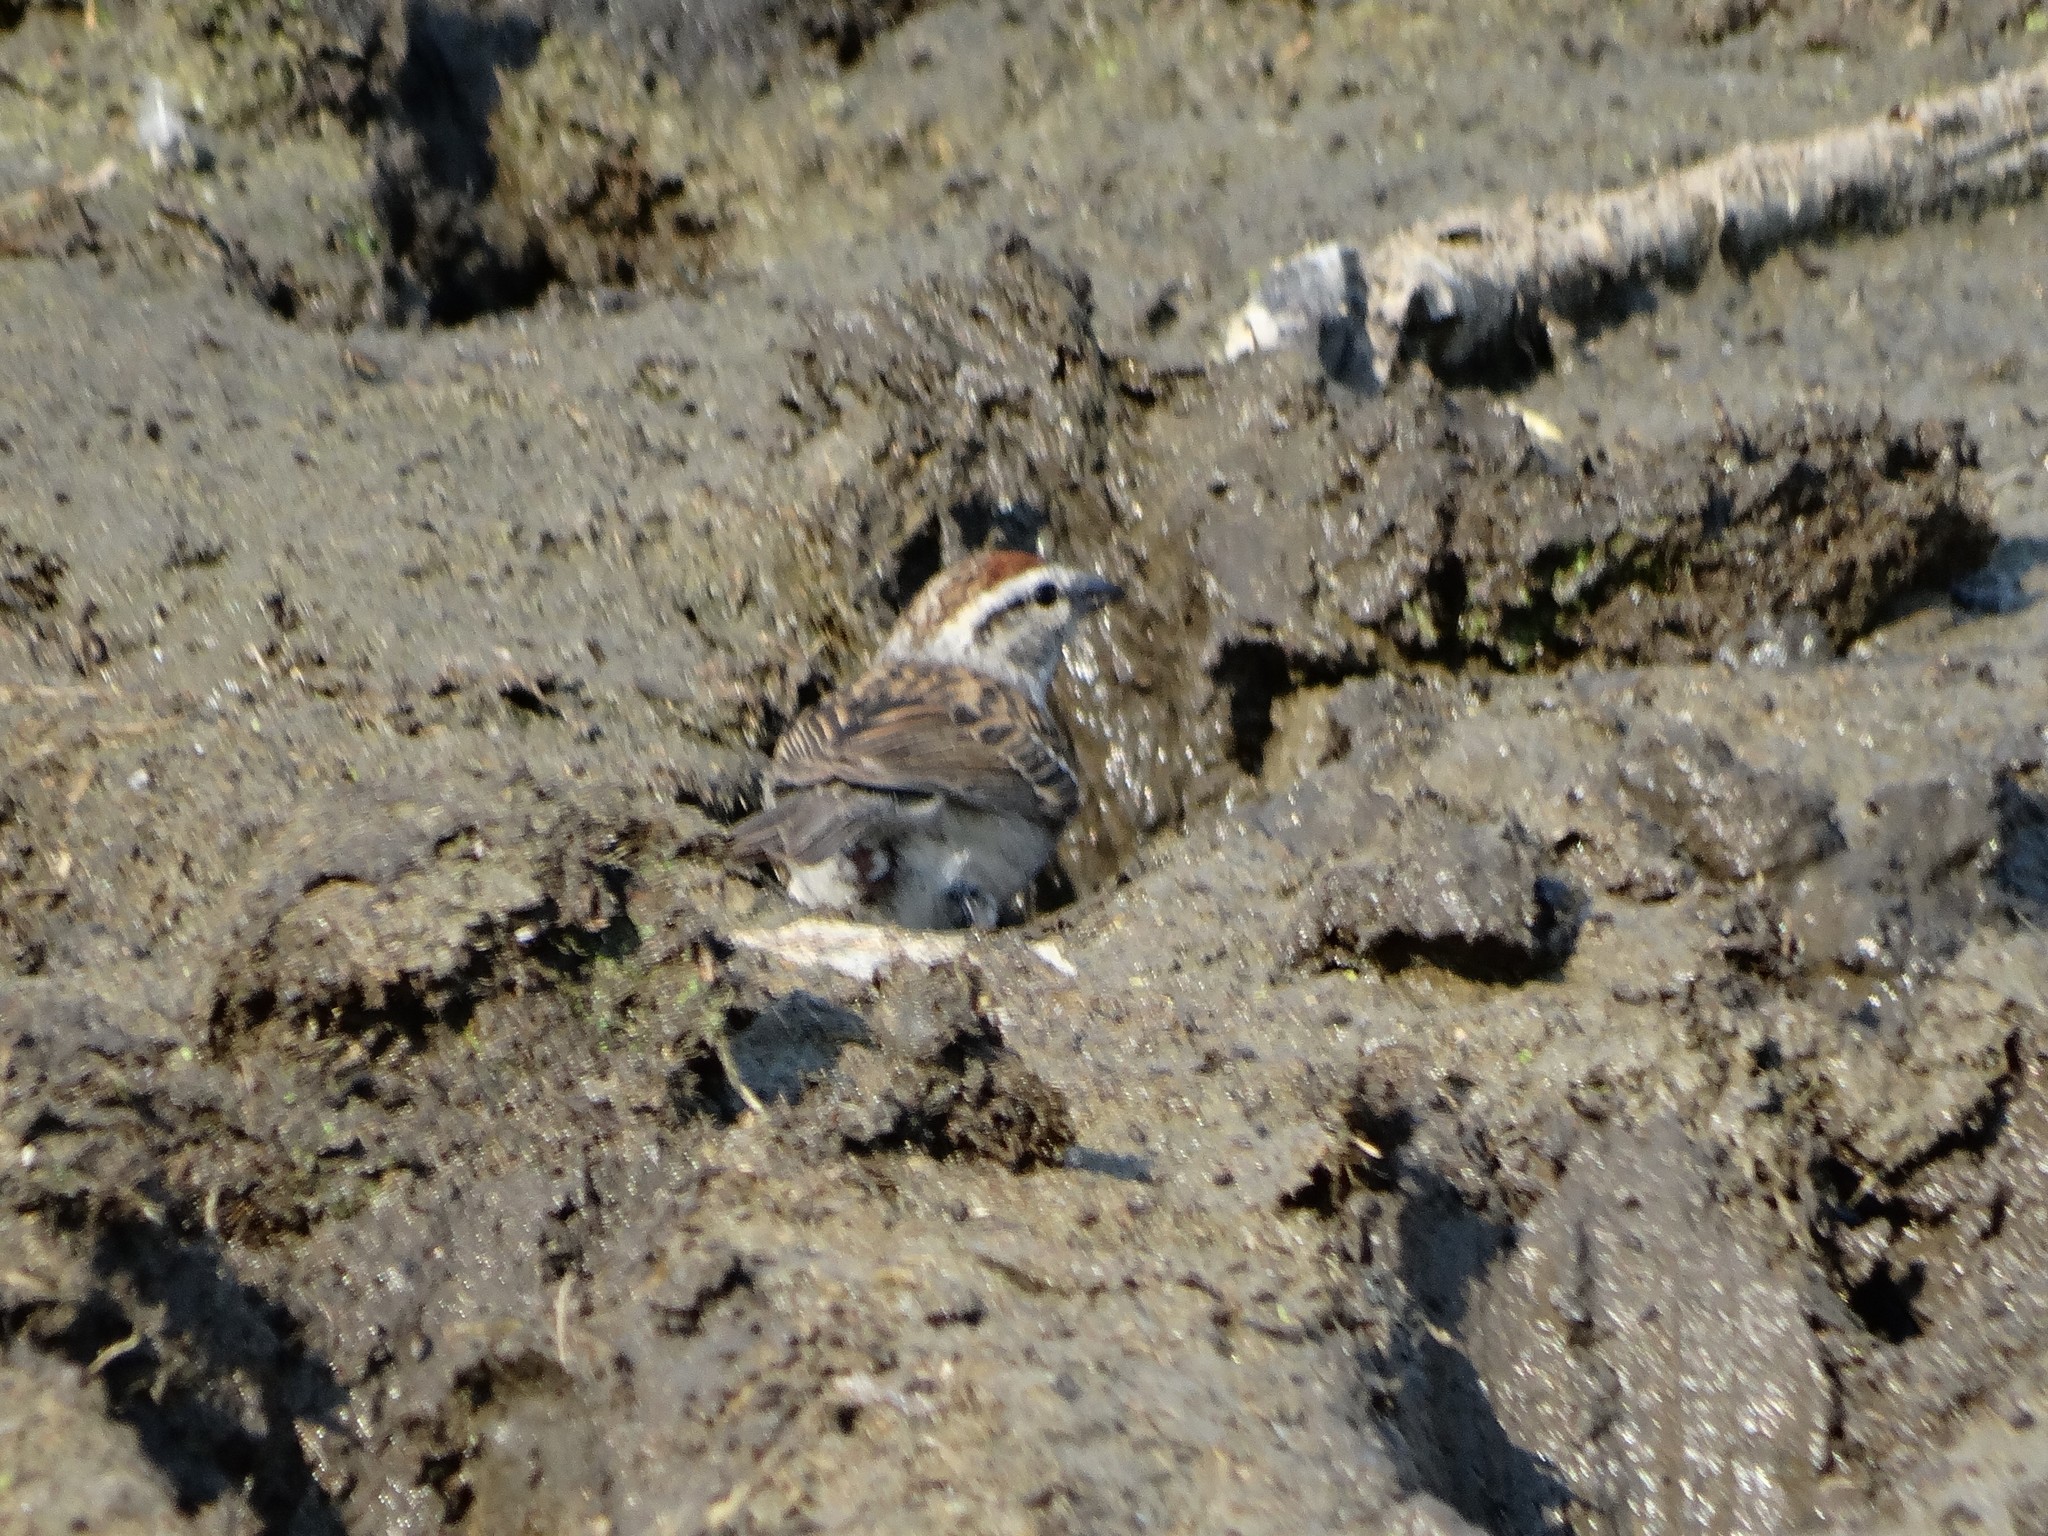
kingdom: Animalia
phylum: Chordata
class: Aves
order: Passeriformes
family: Passerellidae
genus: Spizella
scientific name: Spizella passerina
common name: Chipping sparrow
